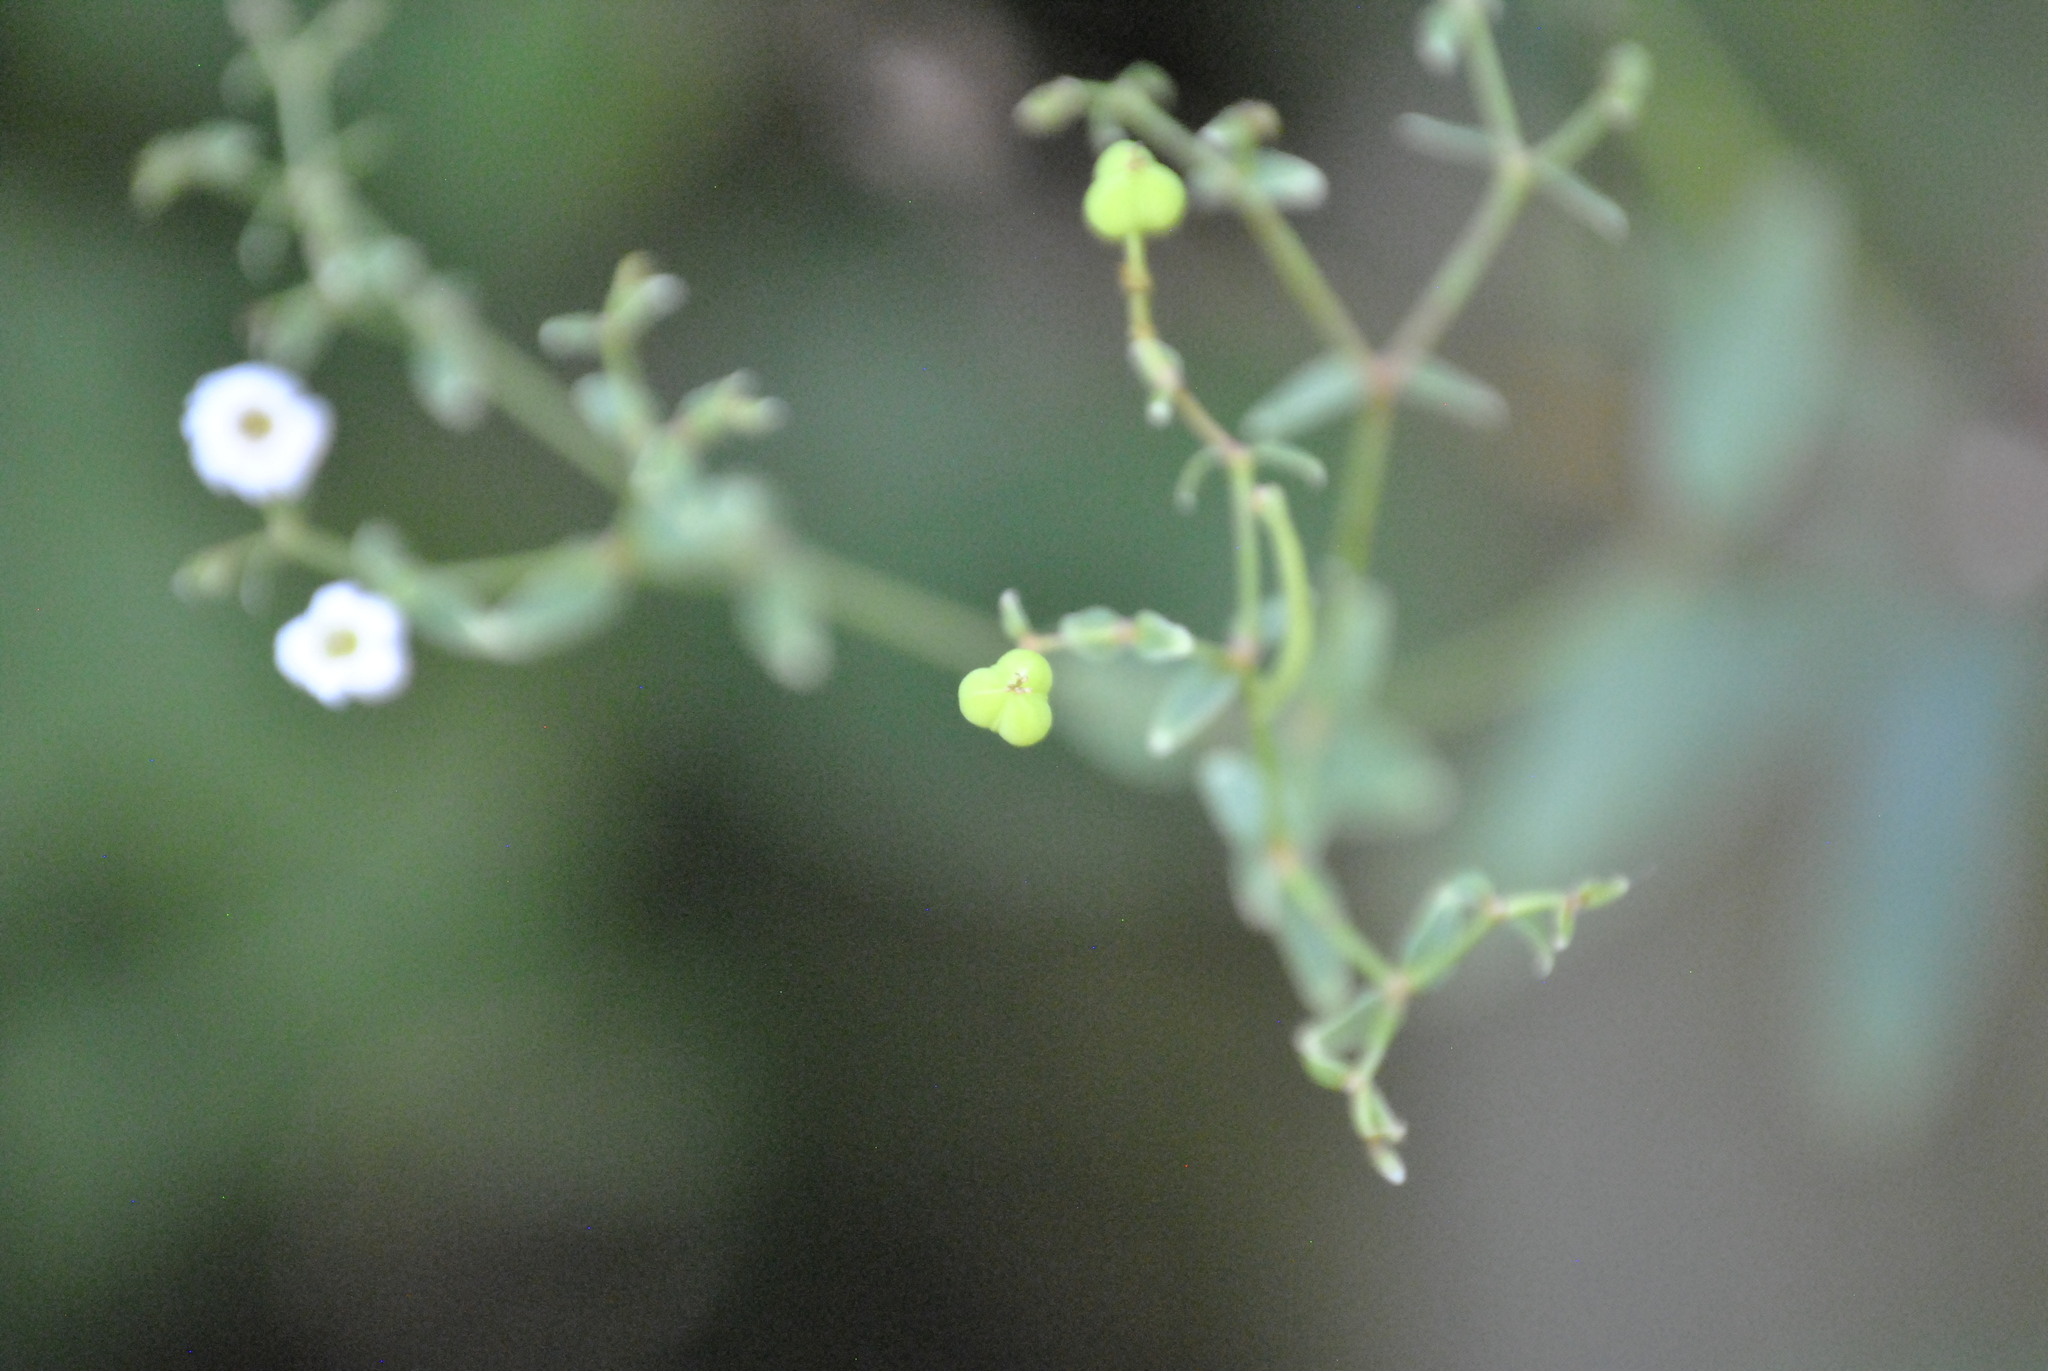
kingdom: Plantae
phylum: Tracheophyta
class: Magnoliopsida
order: Malpighiales
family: Euphorbiaceae
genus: Euphorbia
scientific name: Euphorbia corollata
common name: Flowering spurge
